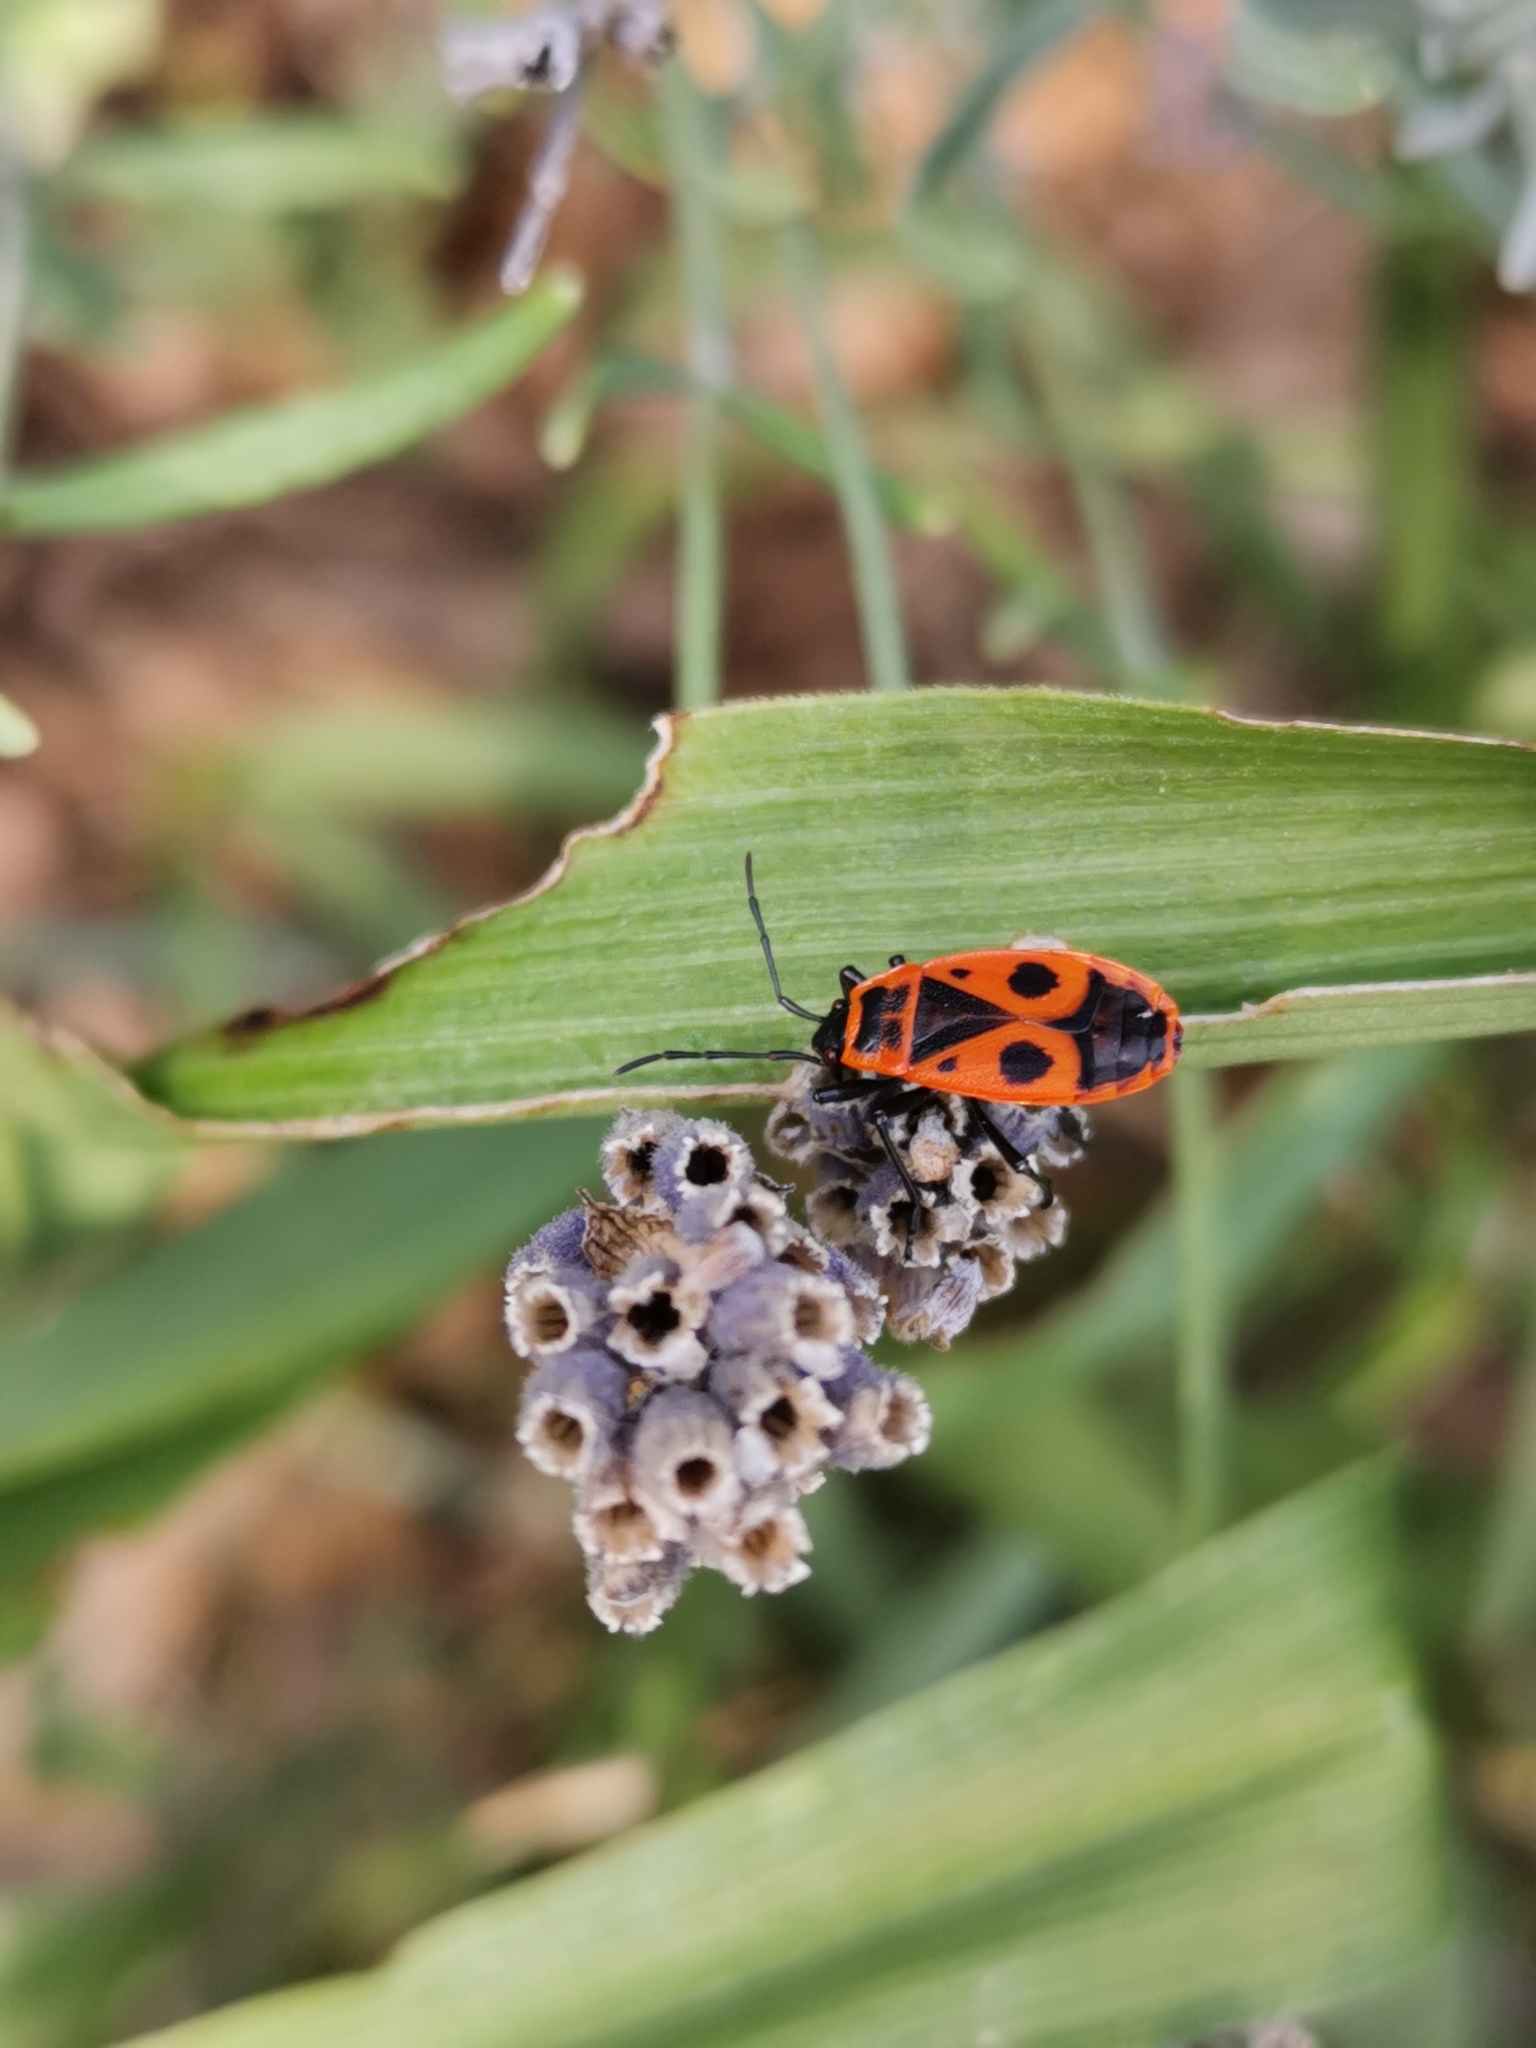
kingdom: Animalia
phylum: Arthropoda
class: Insecta
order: Hemiptera
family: Pyrrhocoridae
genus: Pyrrhocoris
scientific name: Pyrrhocoris apterus
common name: Firebug
